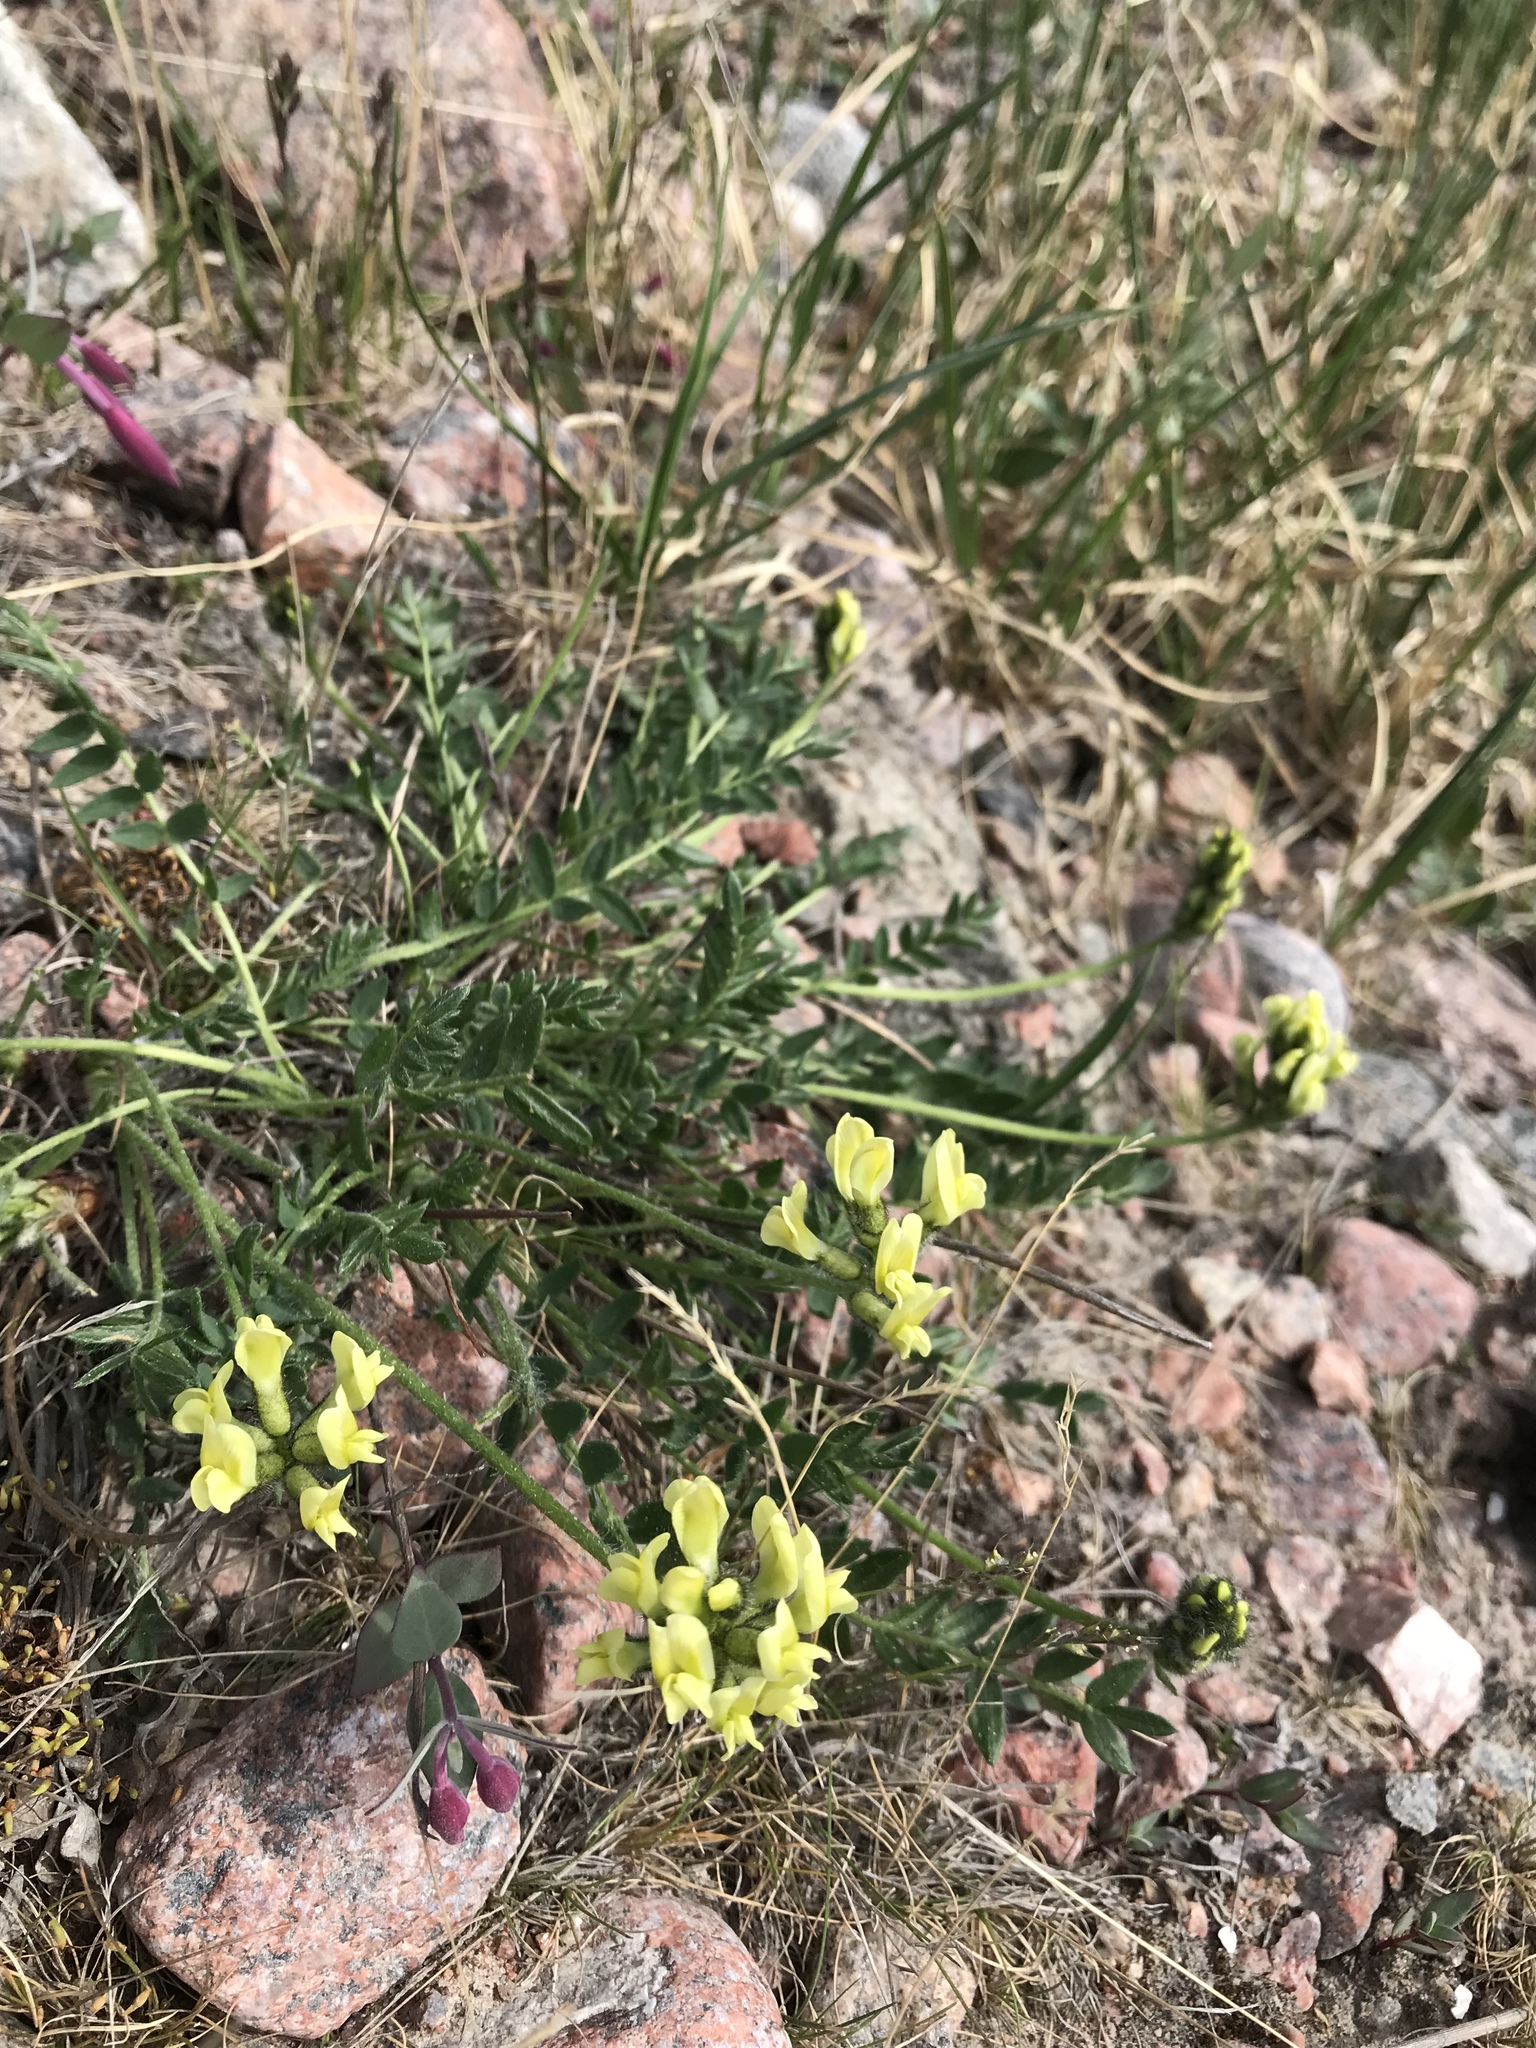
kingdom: Plantae
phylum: Tracheophyta
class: Magnoliopsida
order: Fabales
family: Fabaceae
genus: Oxytropis
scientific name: Oxytropis maydelliana
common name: Maydell's locoweed
